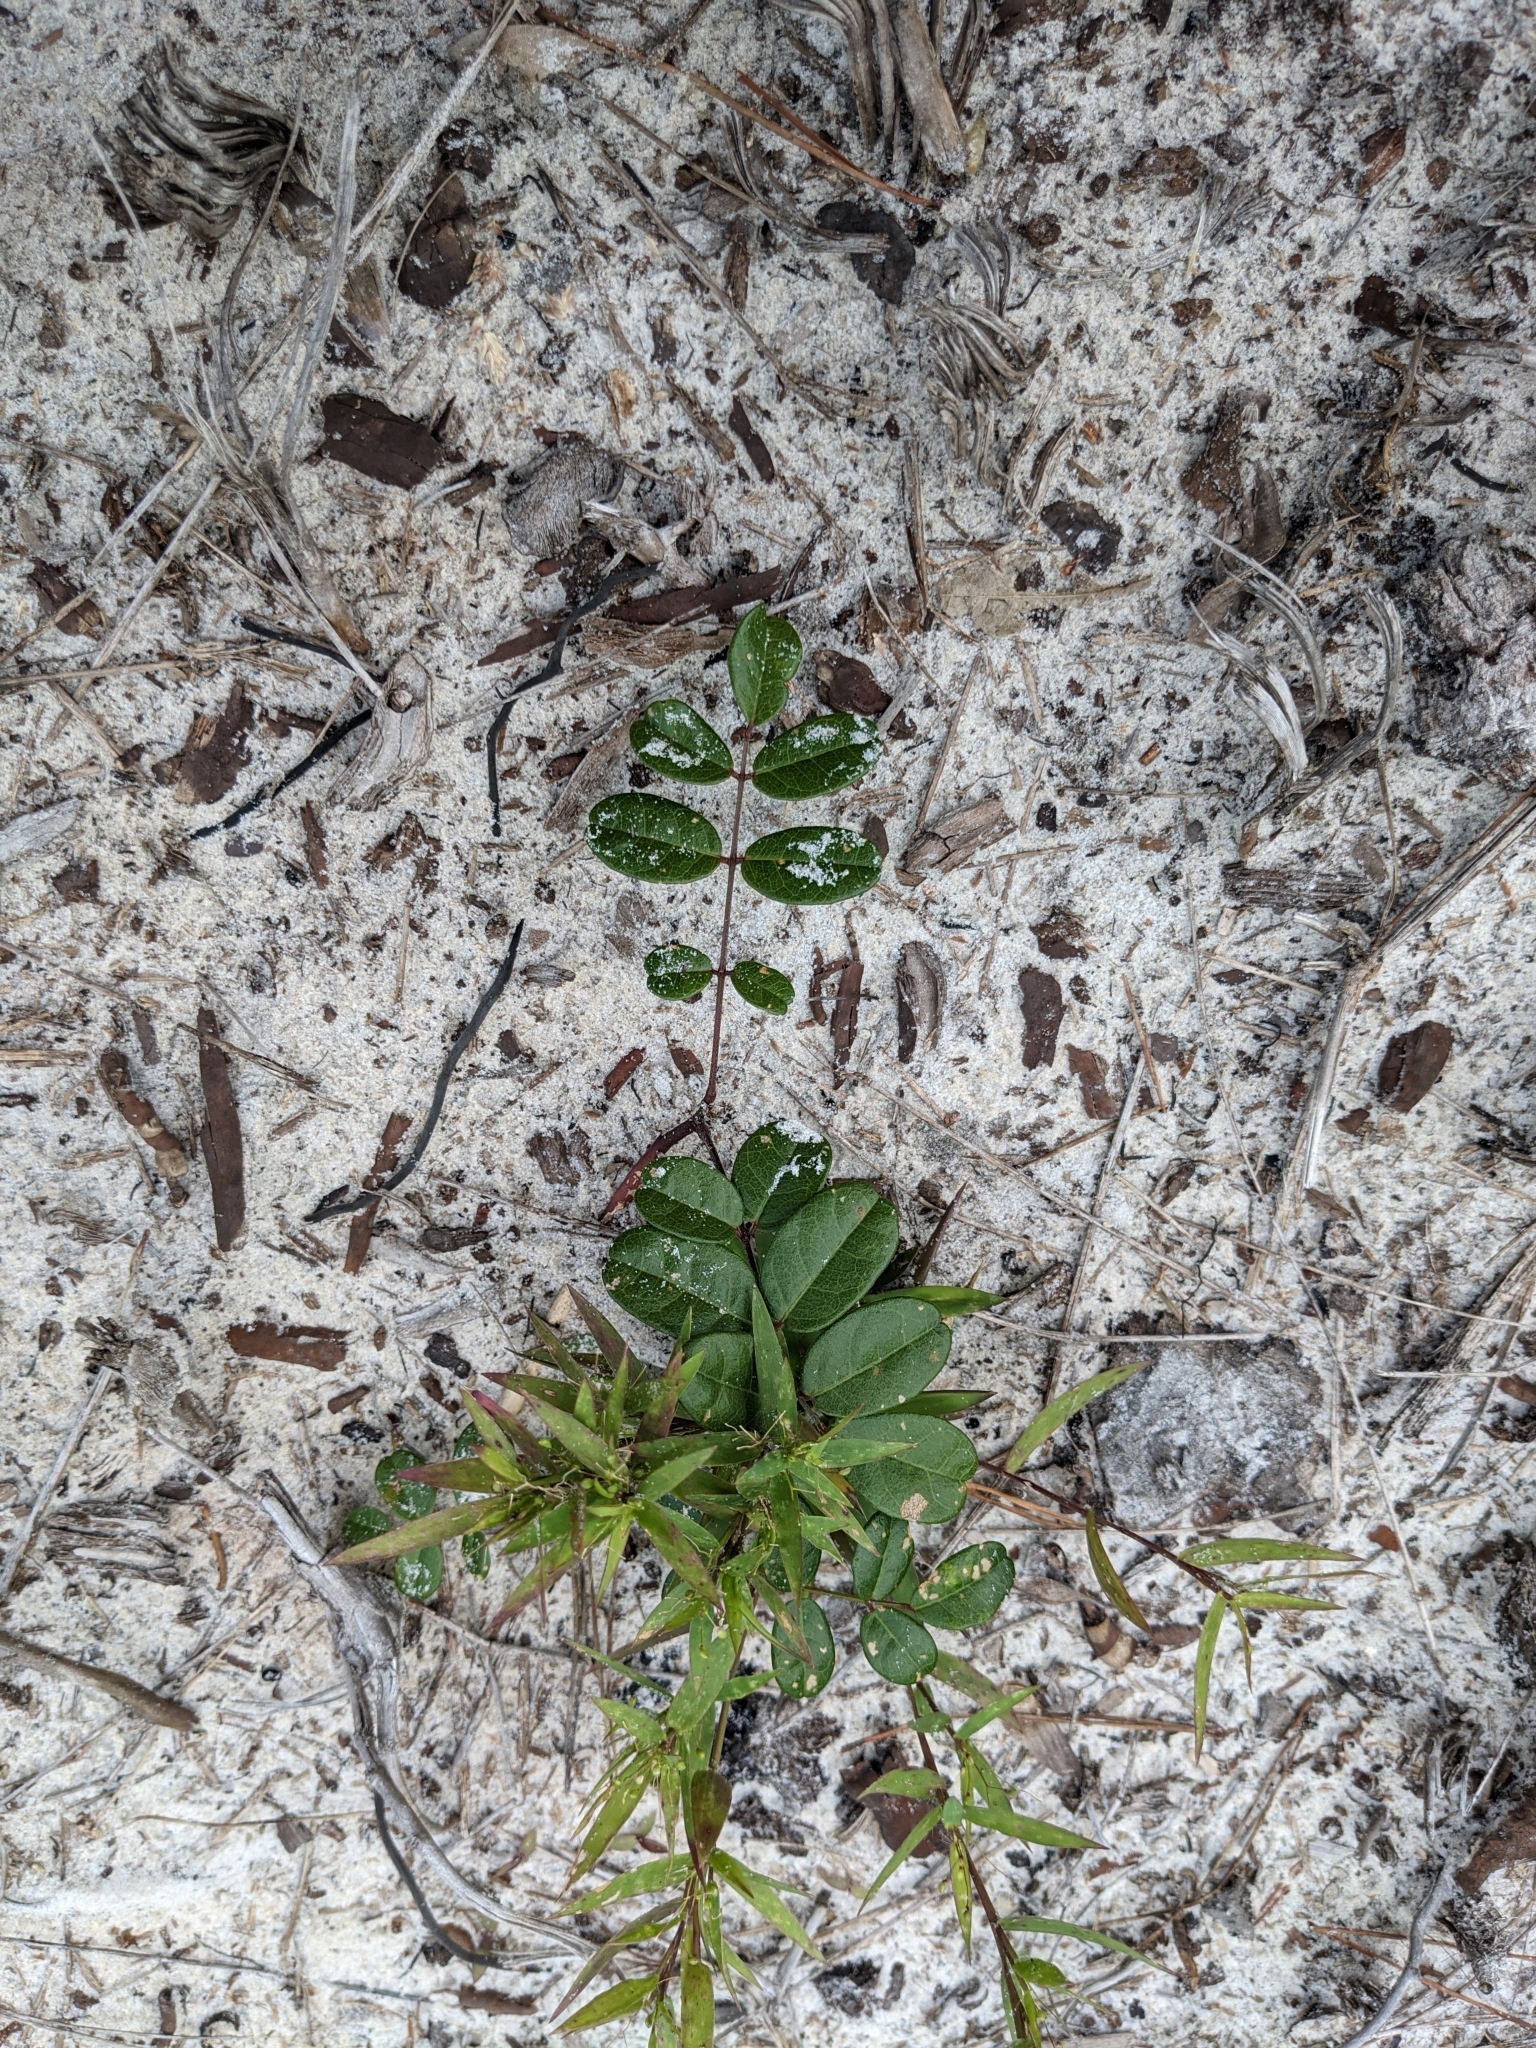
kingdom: Plantae
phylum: Tracheophyta
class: Magnoliopsida
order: Fabales
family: Fabaceae
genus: Galactia
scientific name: Galactia elliottii
